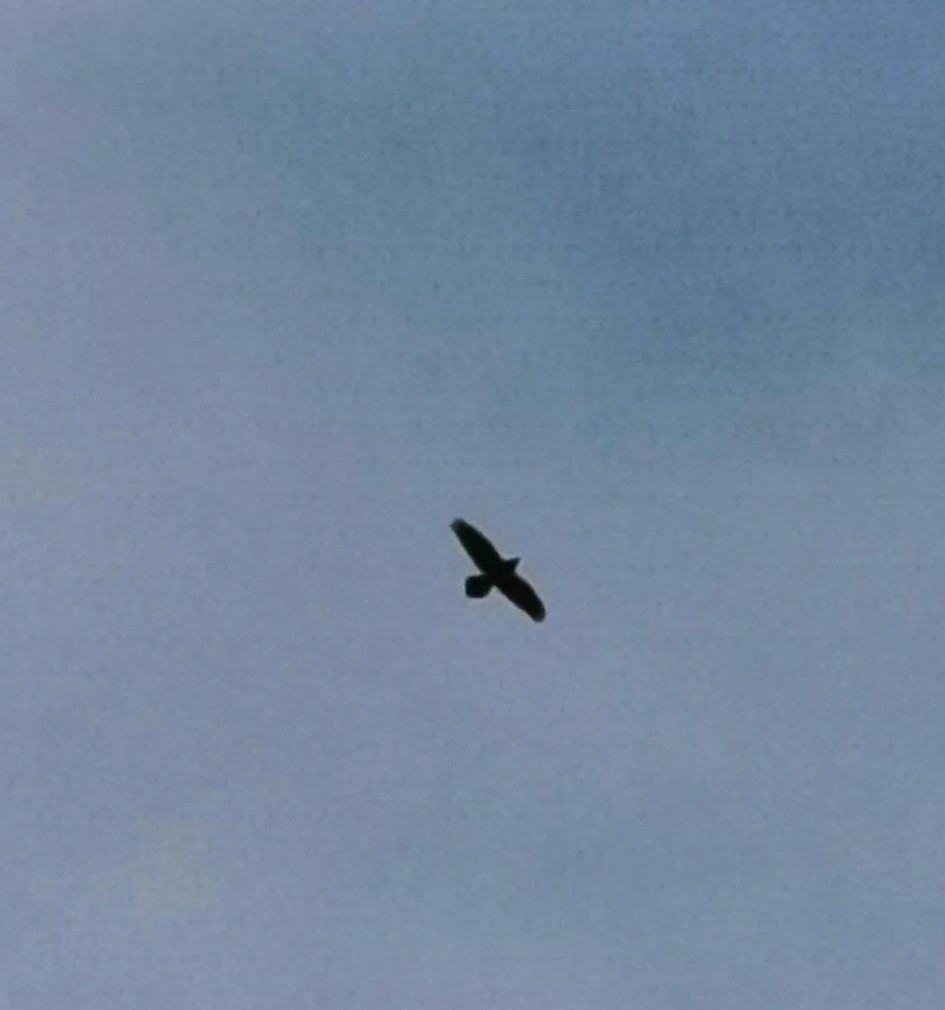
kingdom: Animalia
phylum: Chordata
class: Aves
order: Passeriformes
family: Corvidae
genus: Corvus
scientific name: Corvus corax
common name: Common raven
